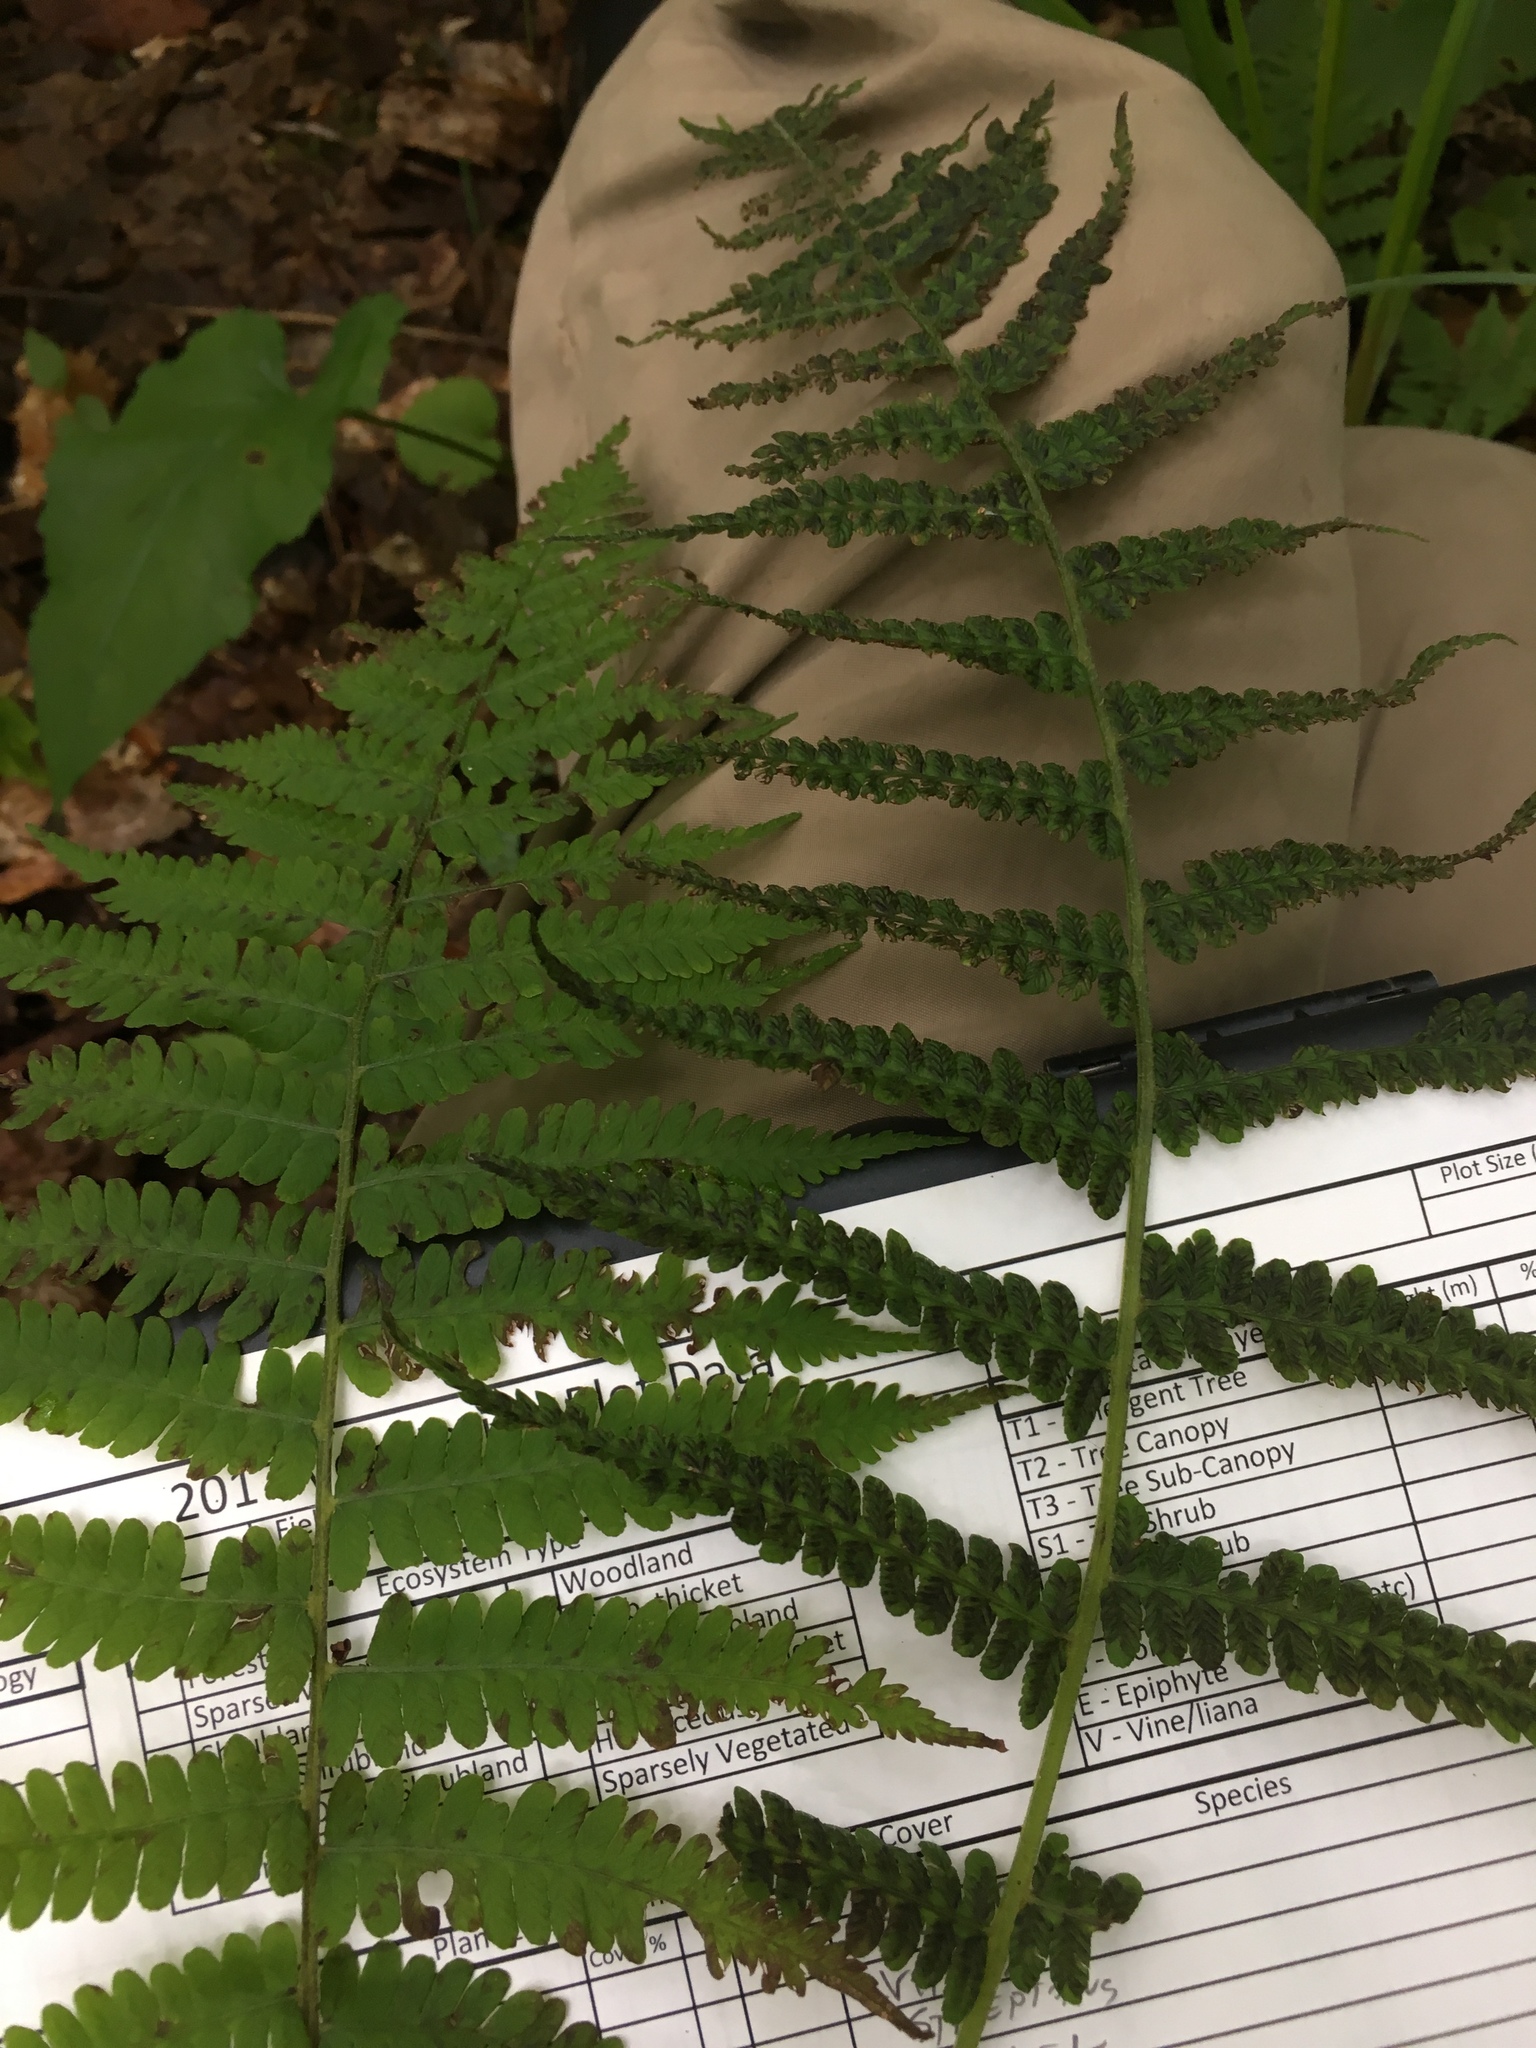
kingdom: Plantae
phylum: Tracheophyta
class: Polypodiopsida
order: Polypodiales
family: Athyriaceae
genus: Deparia
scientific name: Deparia acrostichoides
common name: Silver false spleenwort
